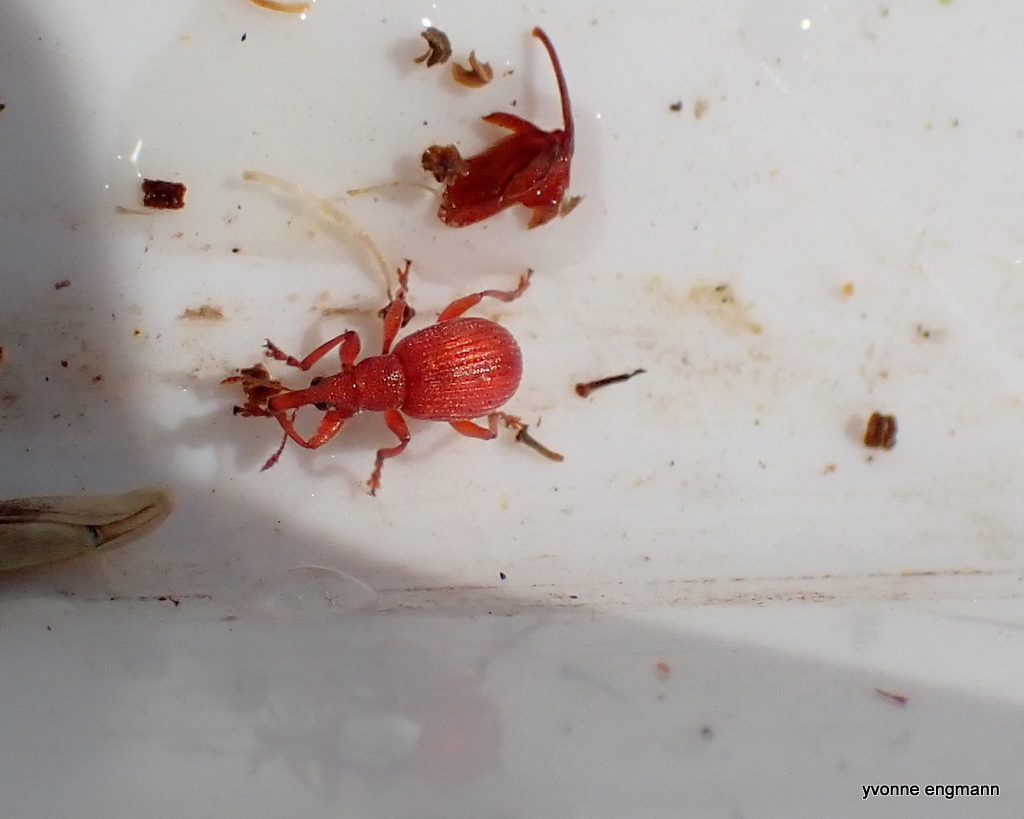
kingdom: Animalia
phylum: Arthropoda
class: Insecta
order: Coleoptera
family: Apionidae
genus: Apion
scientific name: Apion frumentarium
